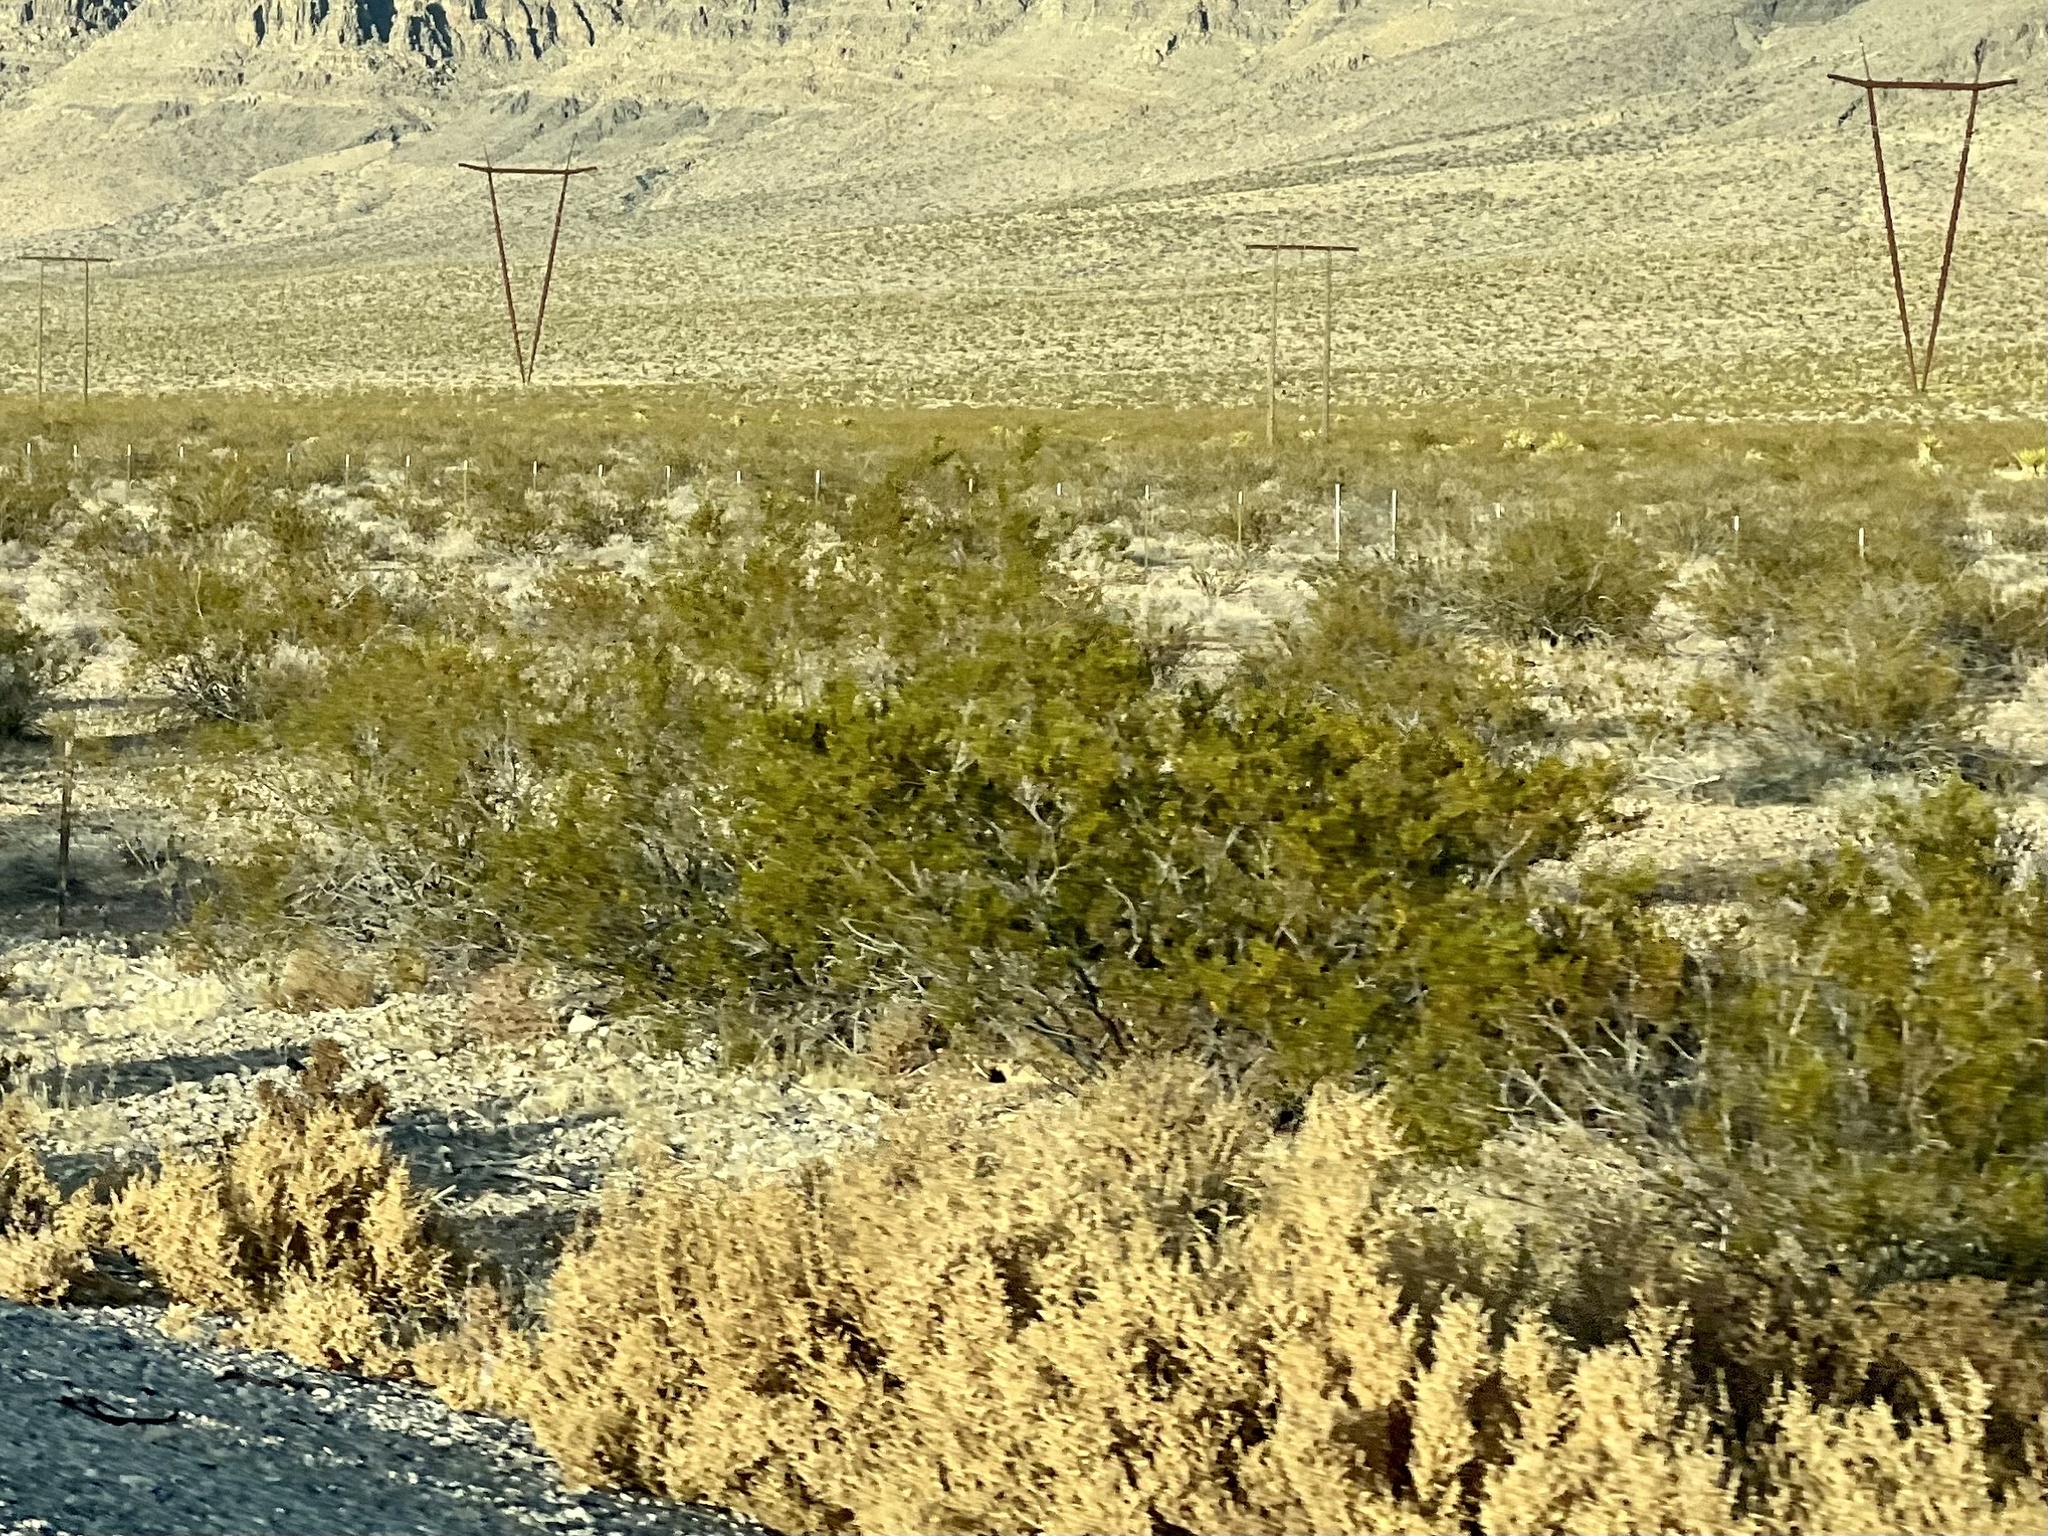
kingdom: Plantae
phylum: Tracheophyta
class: Magnoliopsida
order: Zygophyllales
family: Zygophyllaceae
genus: Larrea
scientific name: Larrea tridentata
